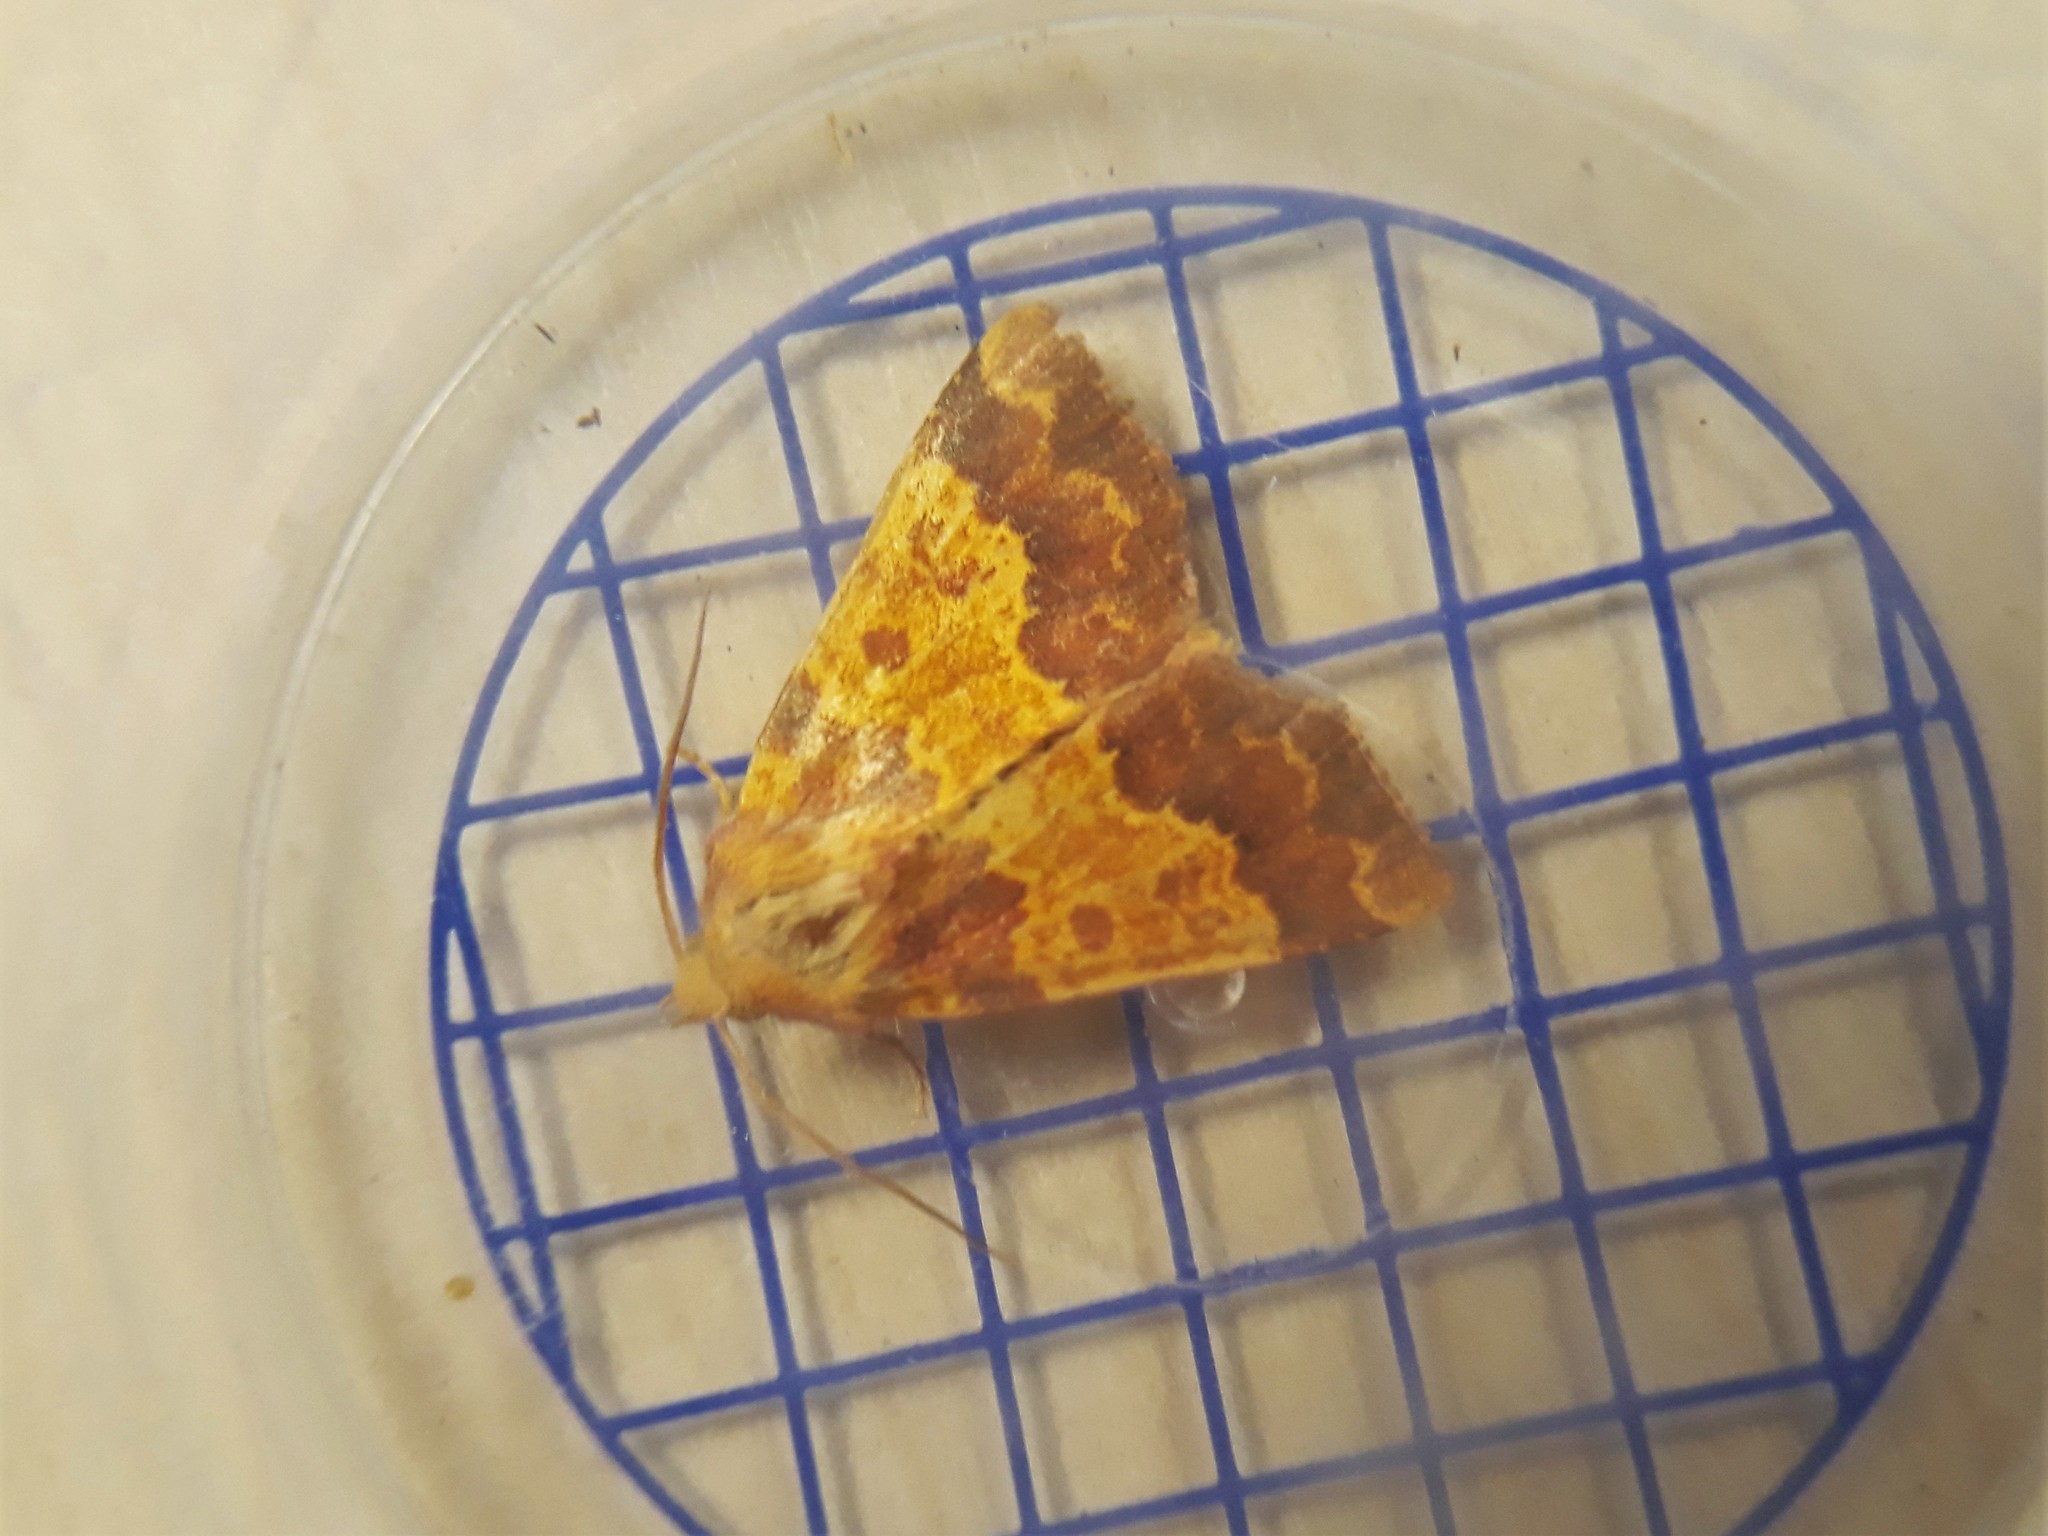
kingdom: Animalia
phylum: Arthropoda
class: Insecta
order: Lepidoptera
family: Noctuidae
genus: Tiliacea
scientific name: Tiliacea aurago
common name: Barred sallow
